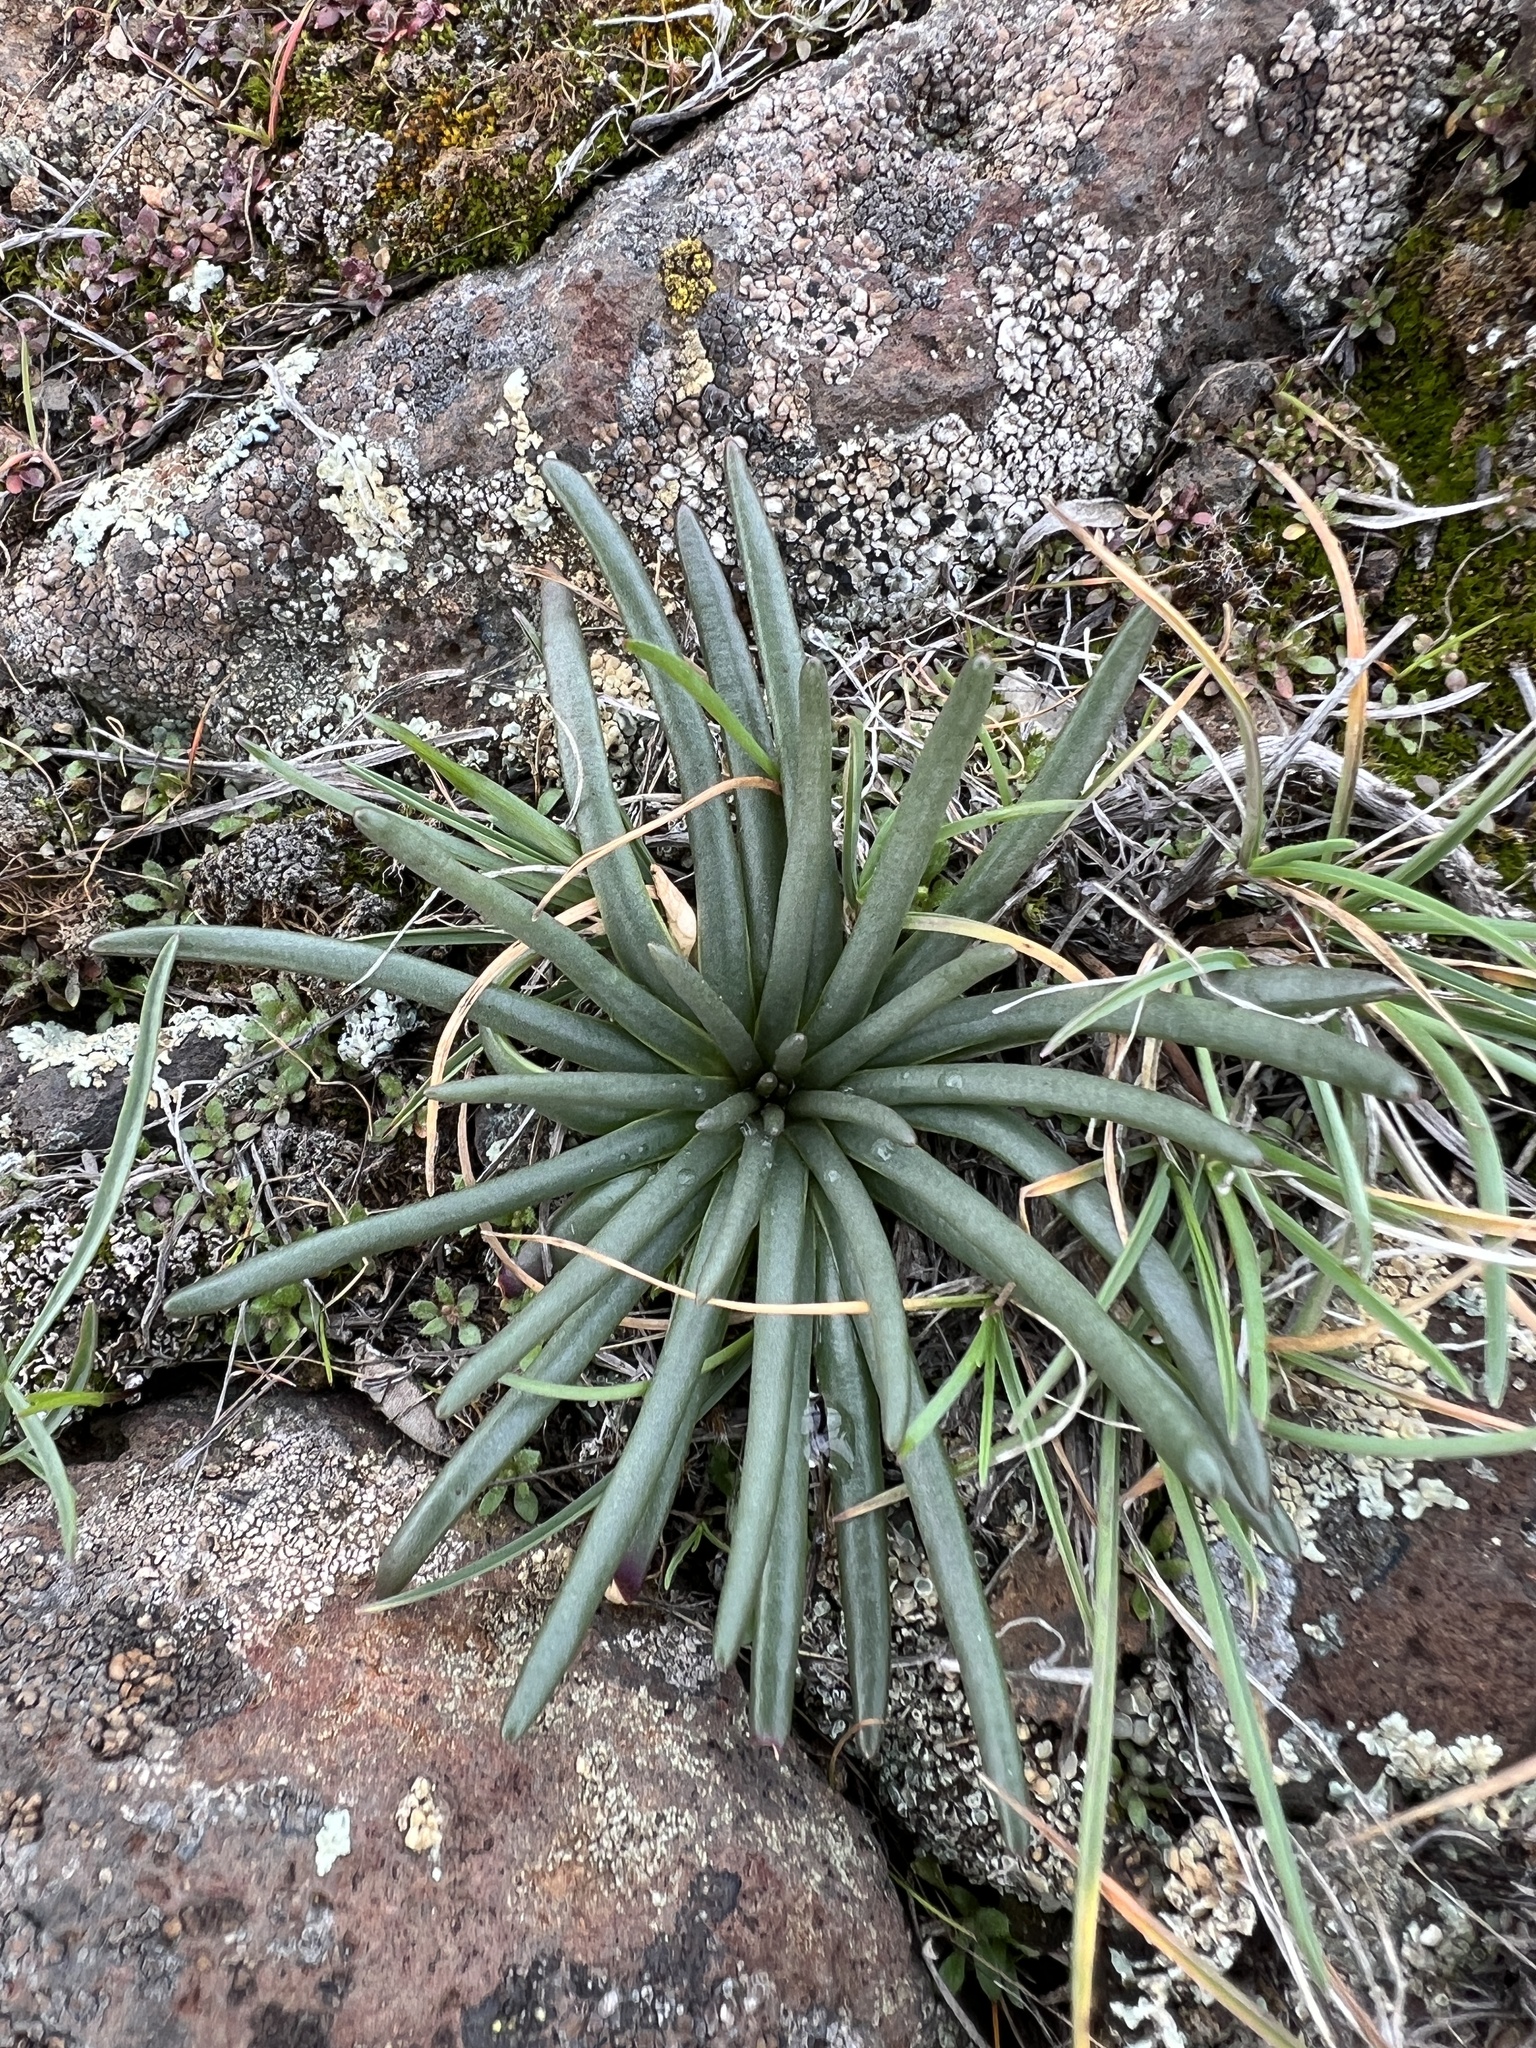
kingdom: Plantae
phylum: Tracheophyta
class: Magnoliopsida
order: Caryophyllales
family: Montiaceae
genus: Lewisia
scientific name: Lewisia rediviva
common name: Bitter-root
